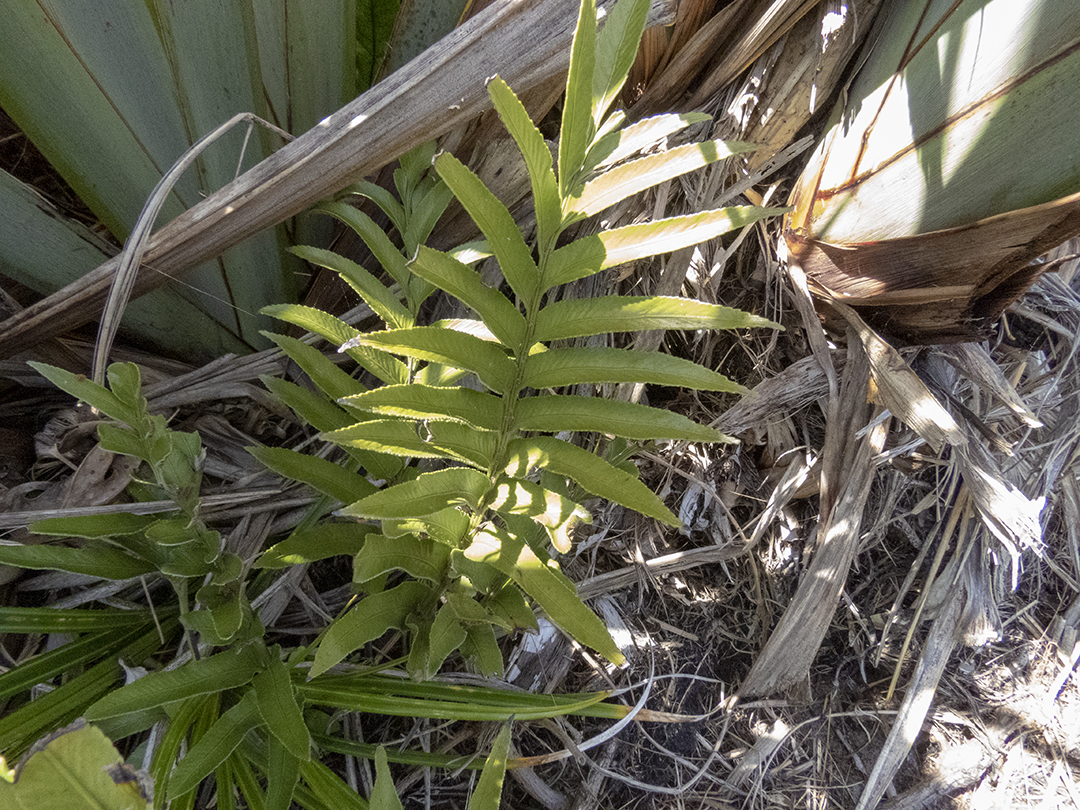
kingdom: Plantae
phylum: Tracheophyta
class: Polypodiopsida
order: Polypodiales
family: Aspleniaceae
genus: Asplenium
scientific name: Asplenium obtusatum
